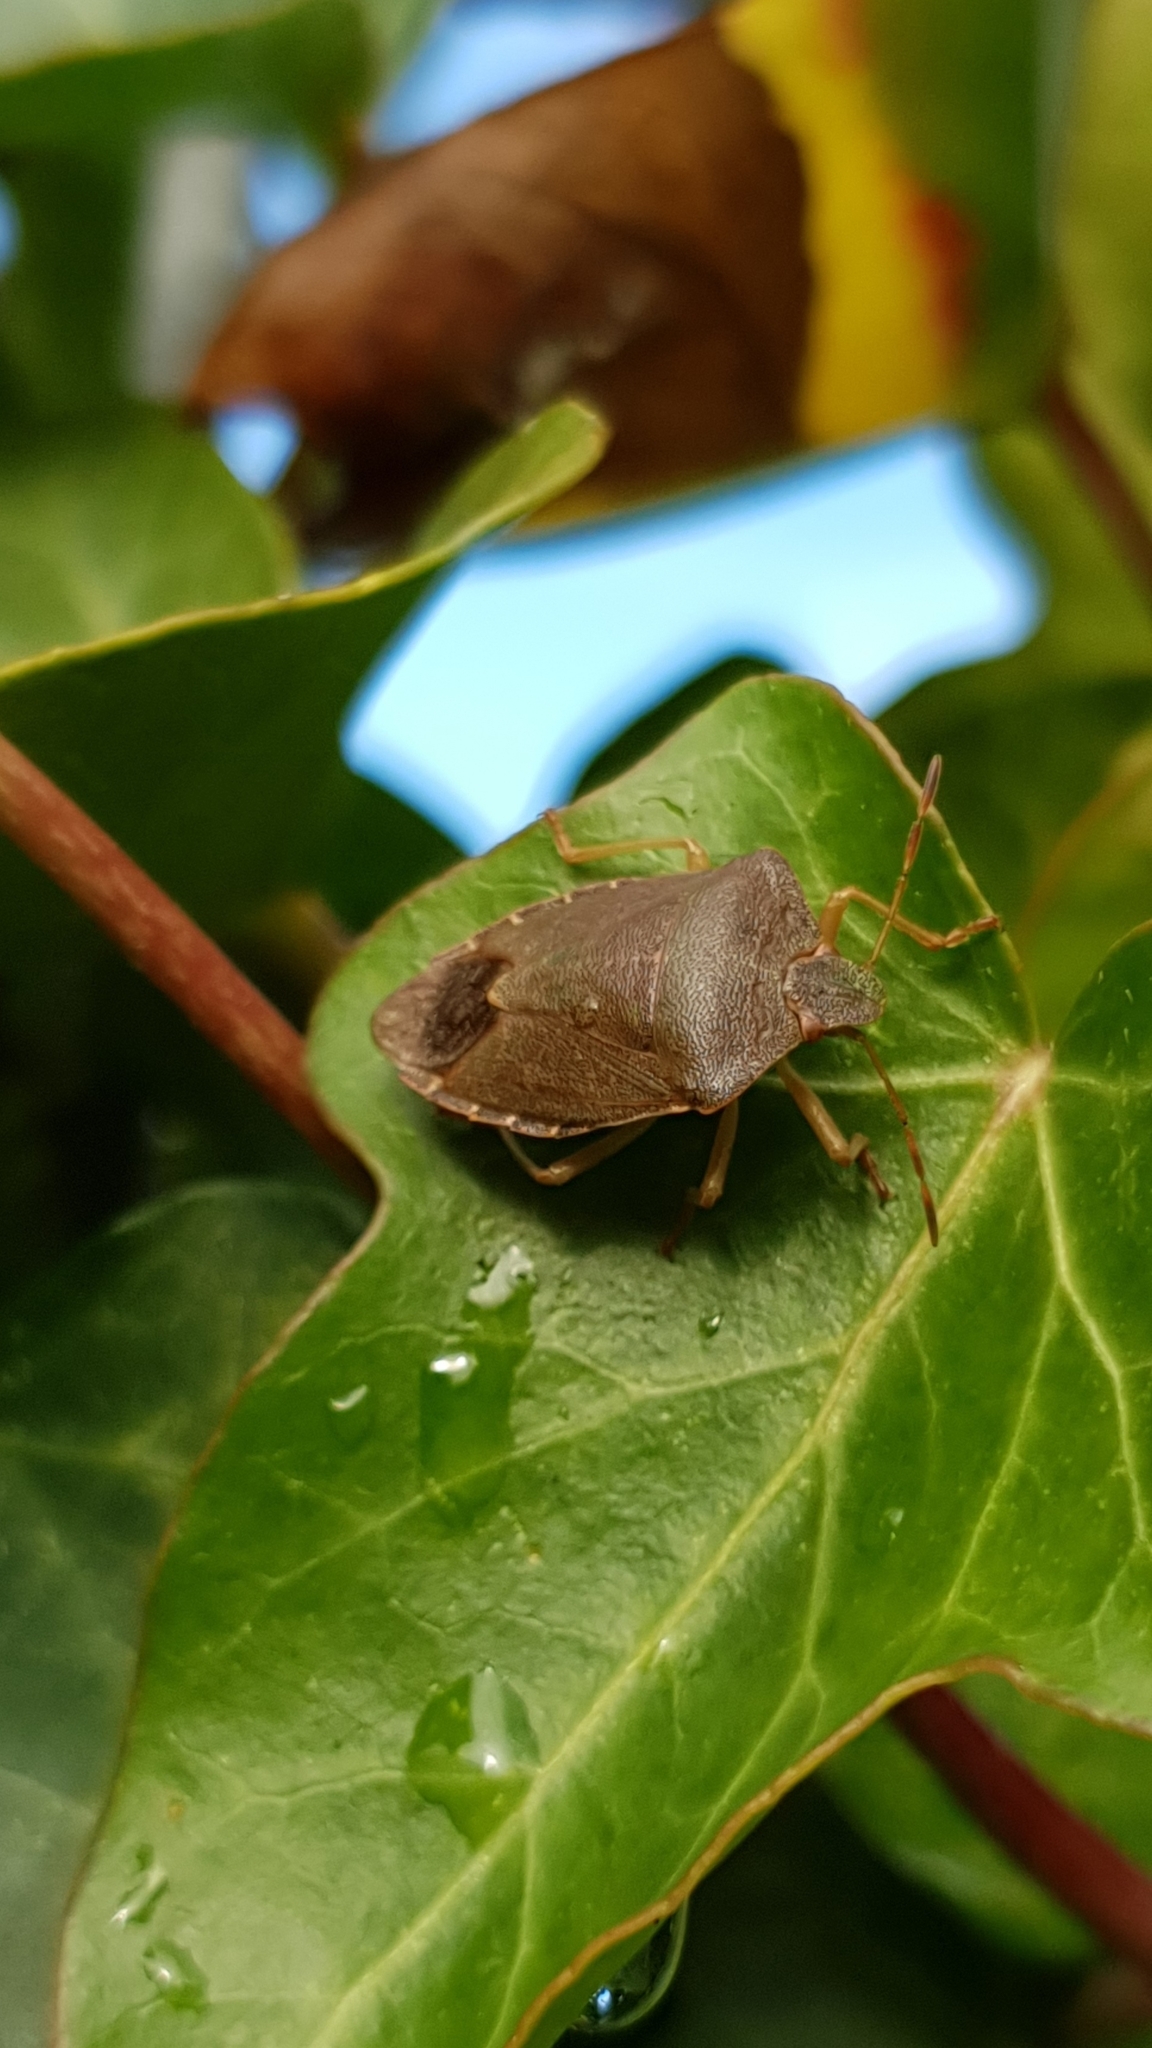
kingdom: Animalia
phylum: Arthropoda
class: Insecta
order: Hemiptera
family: Pentatomidae
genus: Palomena
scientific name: Palomena prasina
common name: Green shieldbug
